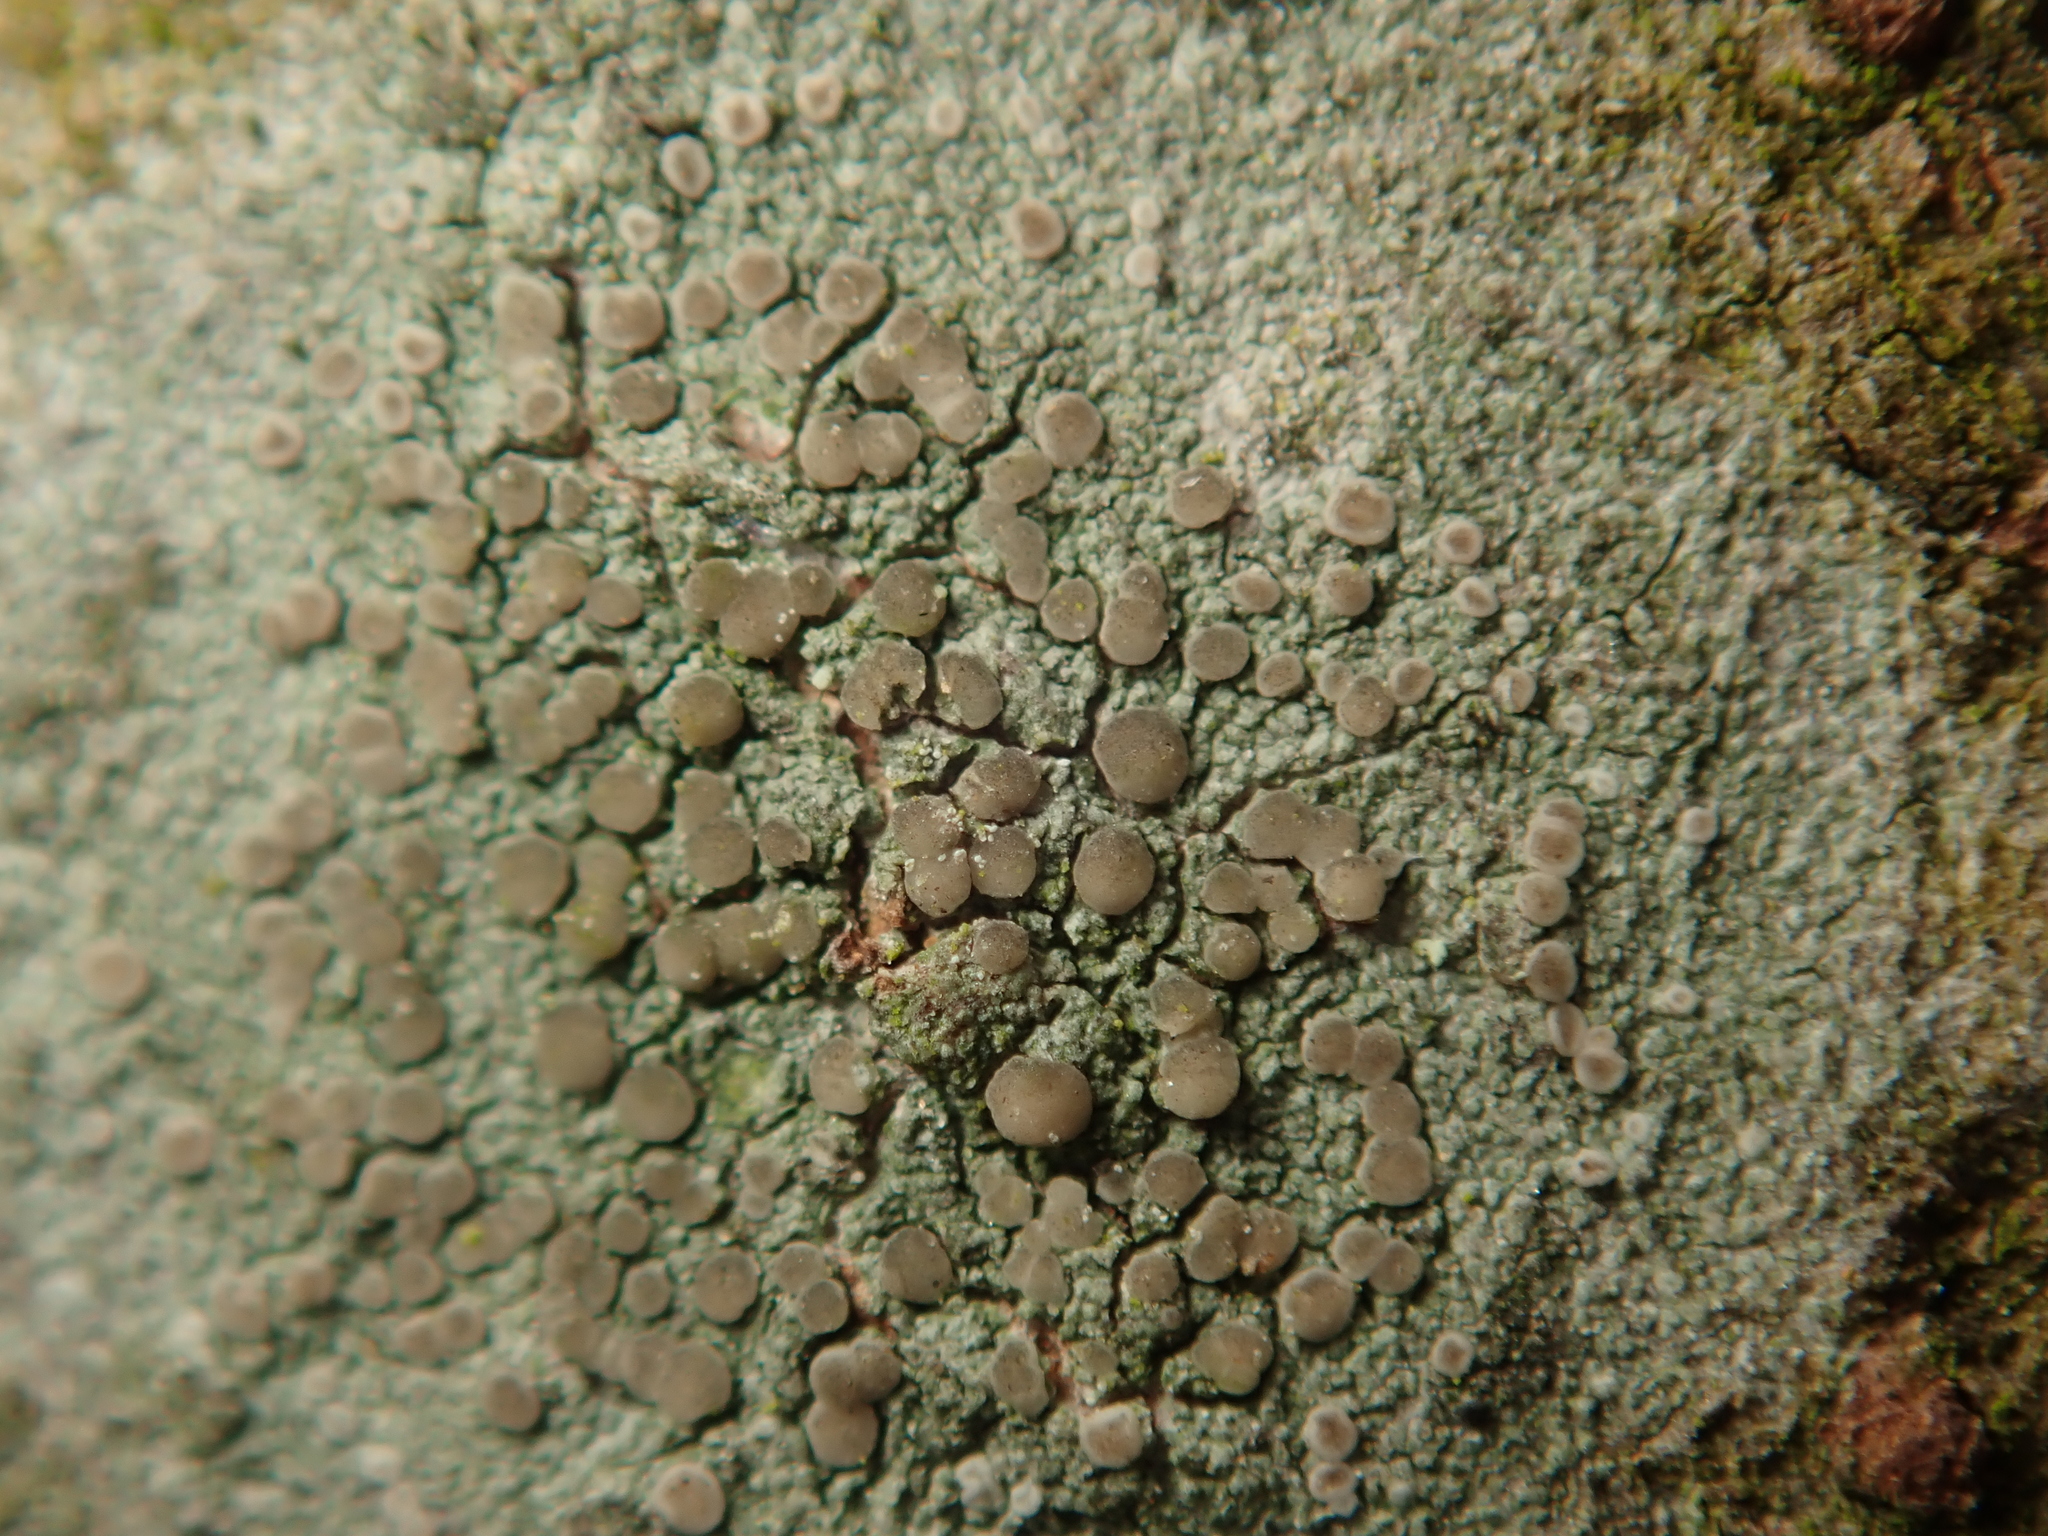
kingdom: Fungi
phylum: Ascomycota
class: Lecanoromycetes
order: Lecanorales
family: Ramalinaceae
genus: Lecania
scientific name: Lecania naegelii
